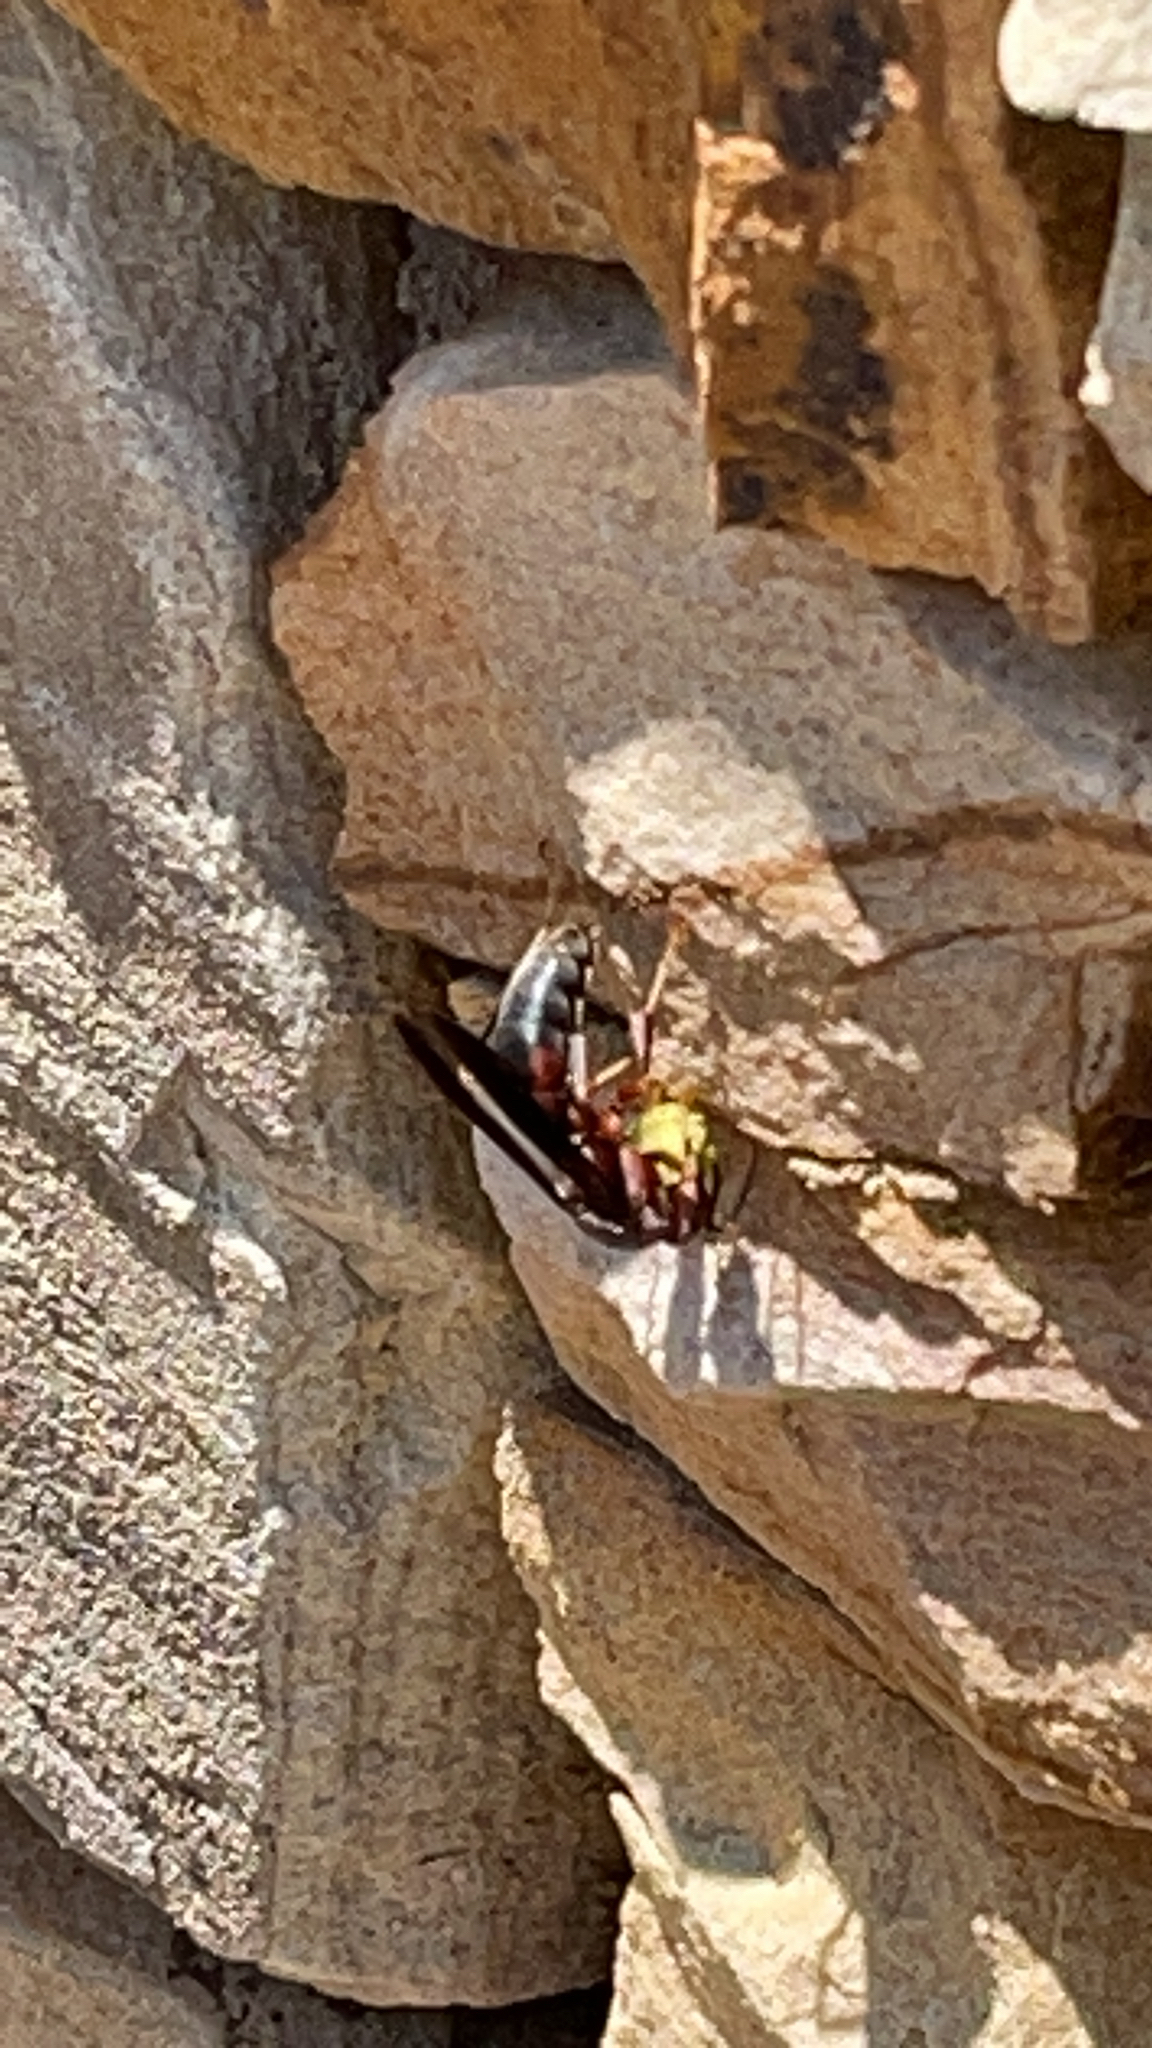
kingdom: Animalia
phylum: Arthropoda
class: Insecta
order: Hymenoptera
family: Eumenidae
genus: Polistes
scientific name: Polistes metricus
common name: Metric paper wasp
